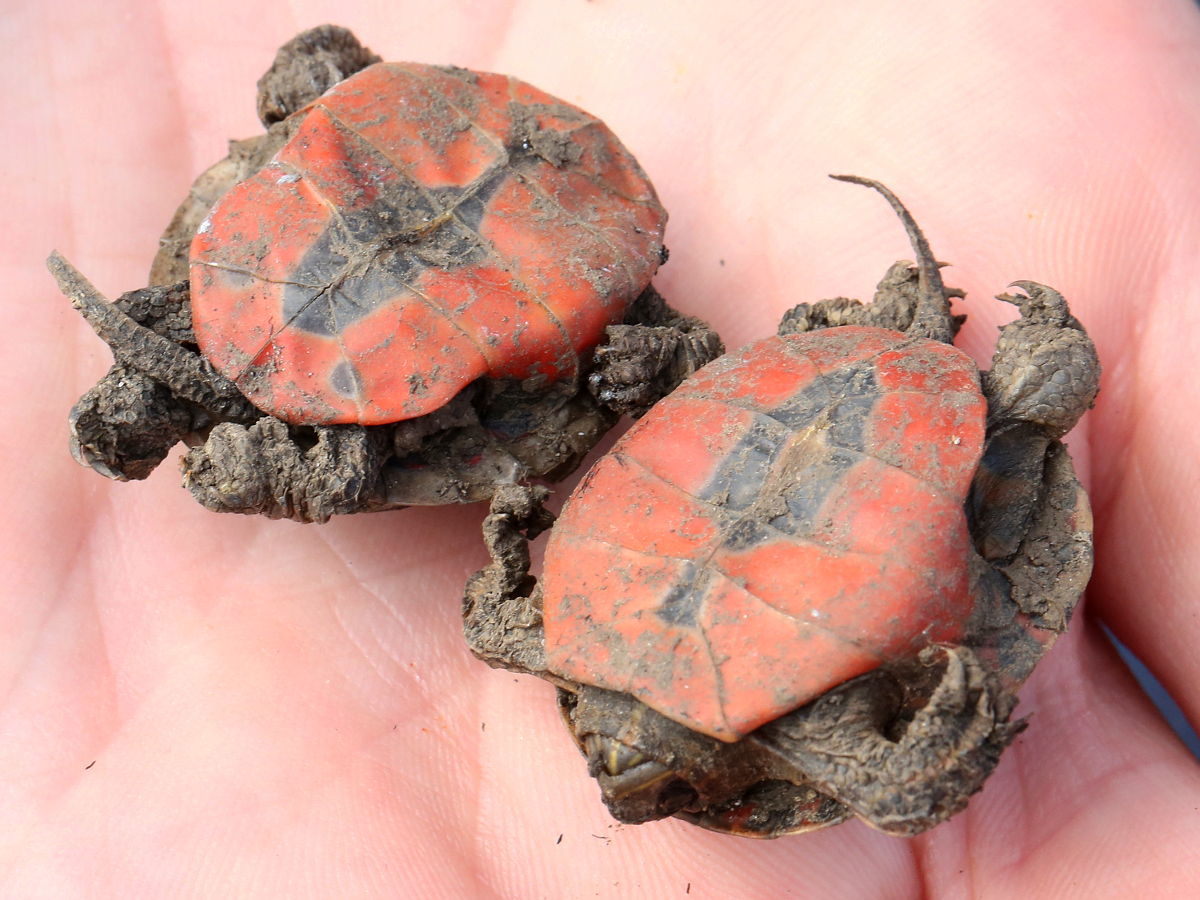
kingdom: Animalia
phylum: Chordata
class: Testudines
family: Emydidae
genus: Chrysemys
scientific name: Chrysemys picta
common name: Painted turtle
